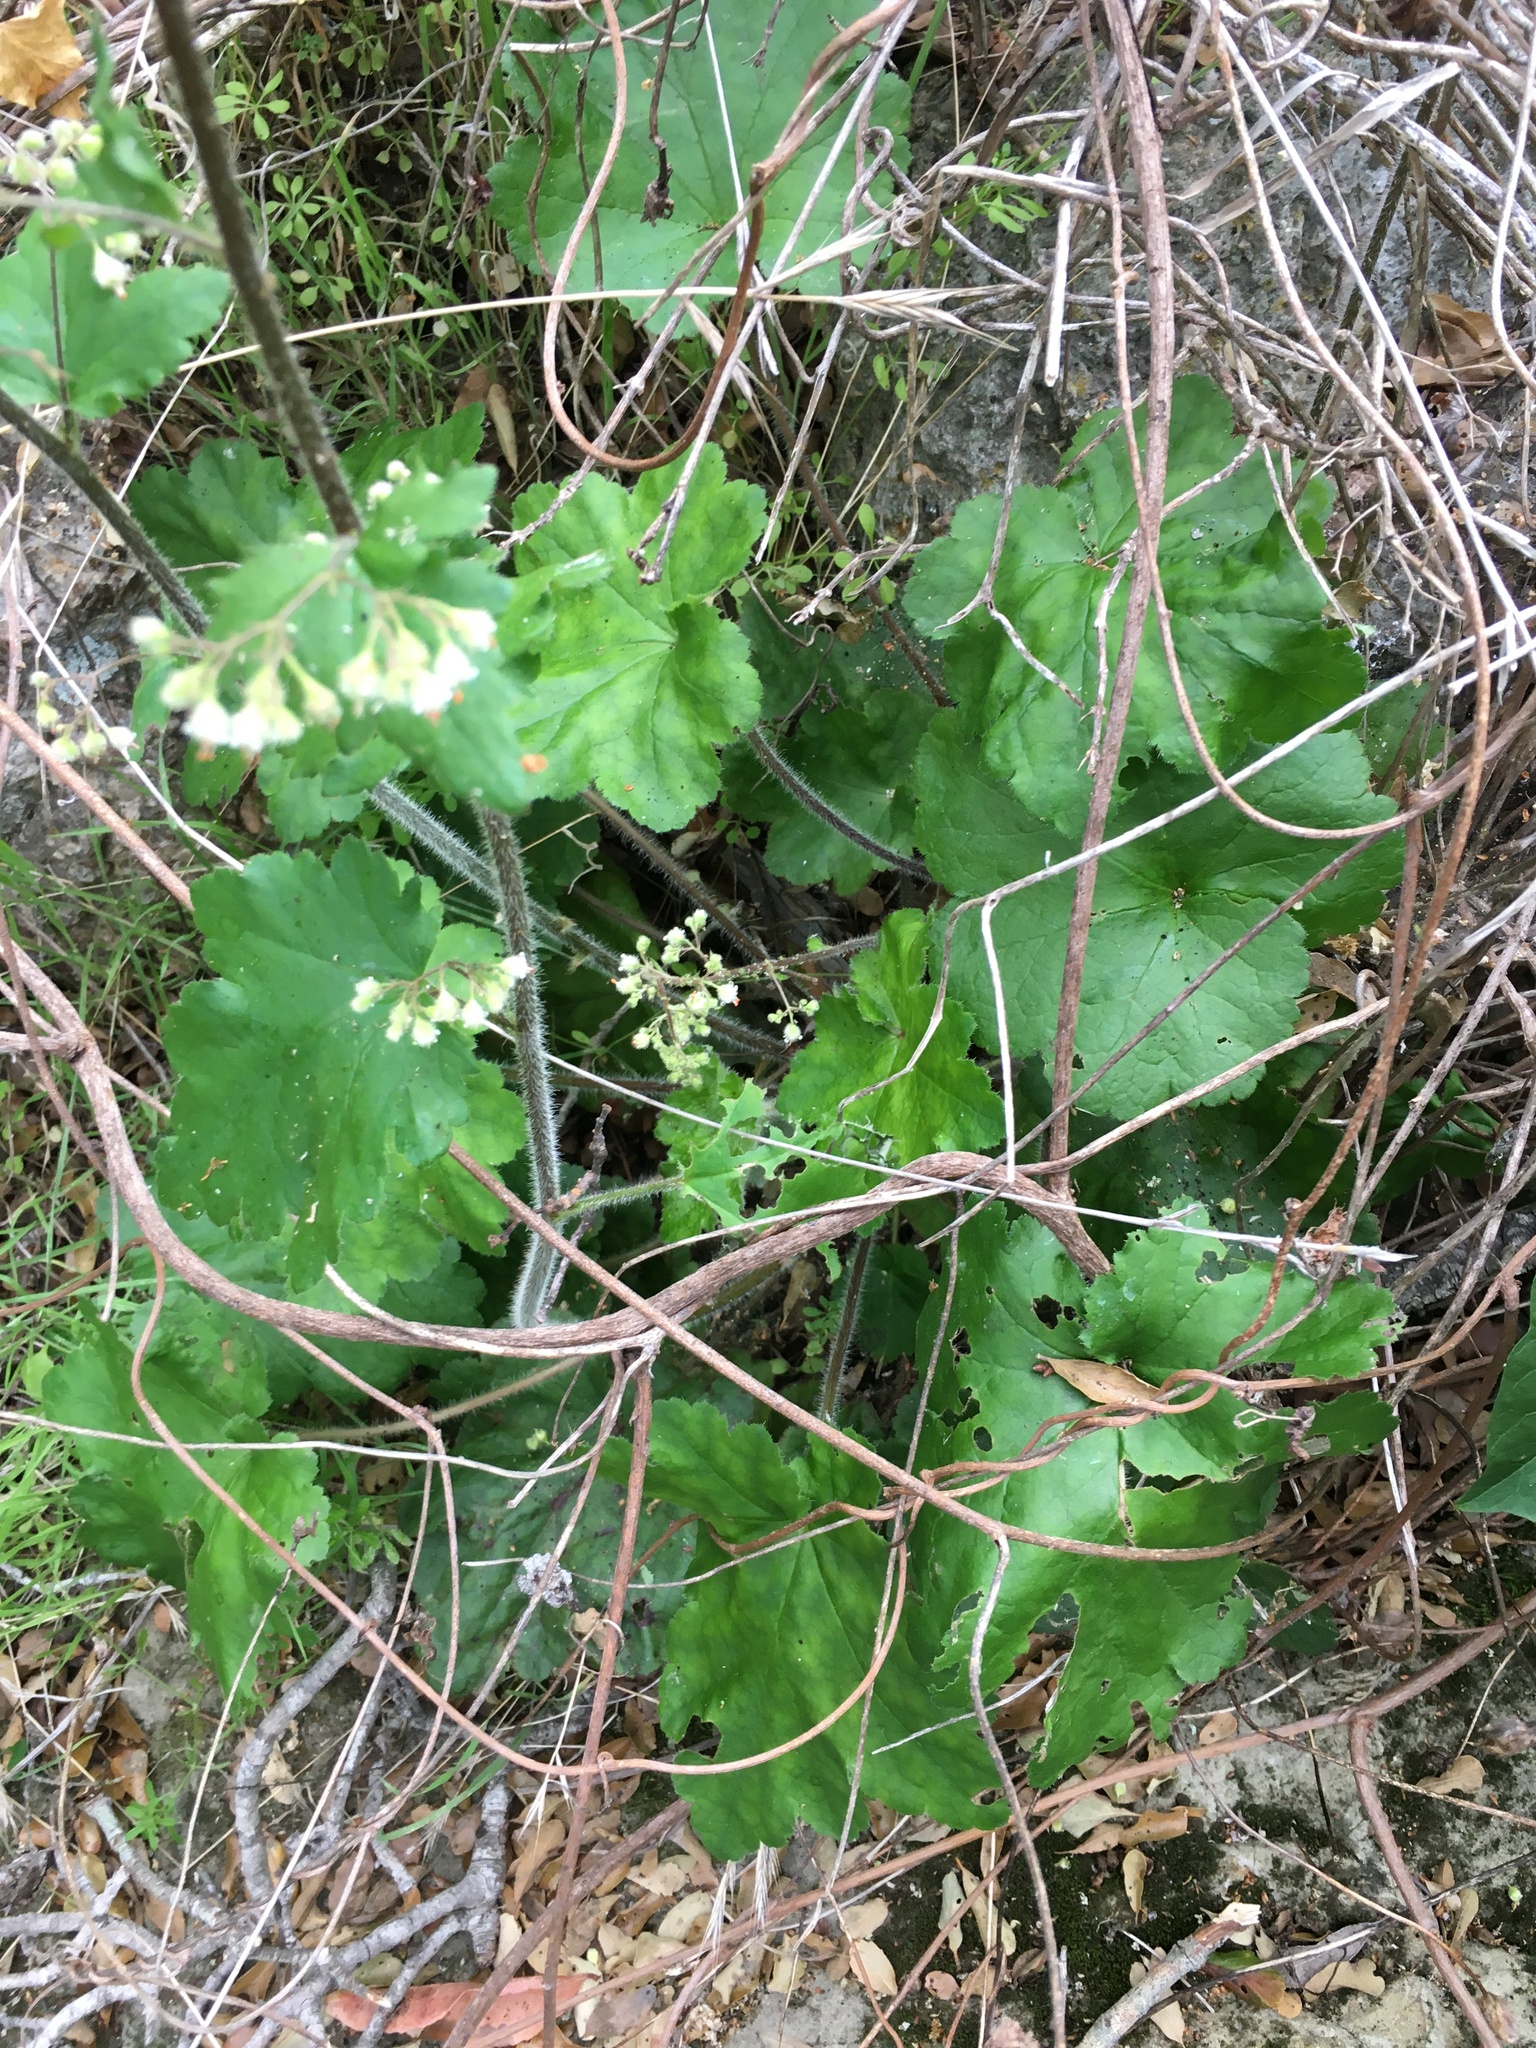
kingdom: Plantae
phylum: Tracheophyta
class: Magnoliopsida
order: Saxifragales
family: Saxifragaceae
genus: Heuchera
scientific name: Heuchera maxima
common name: Island alumroot
